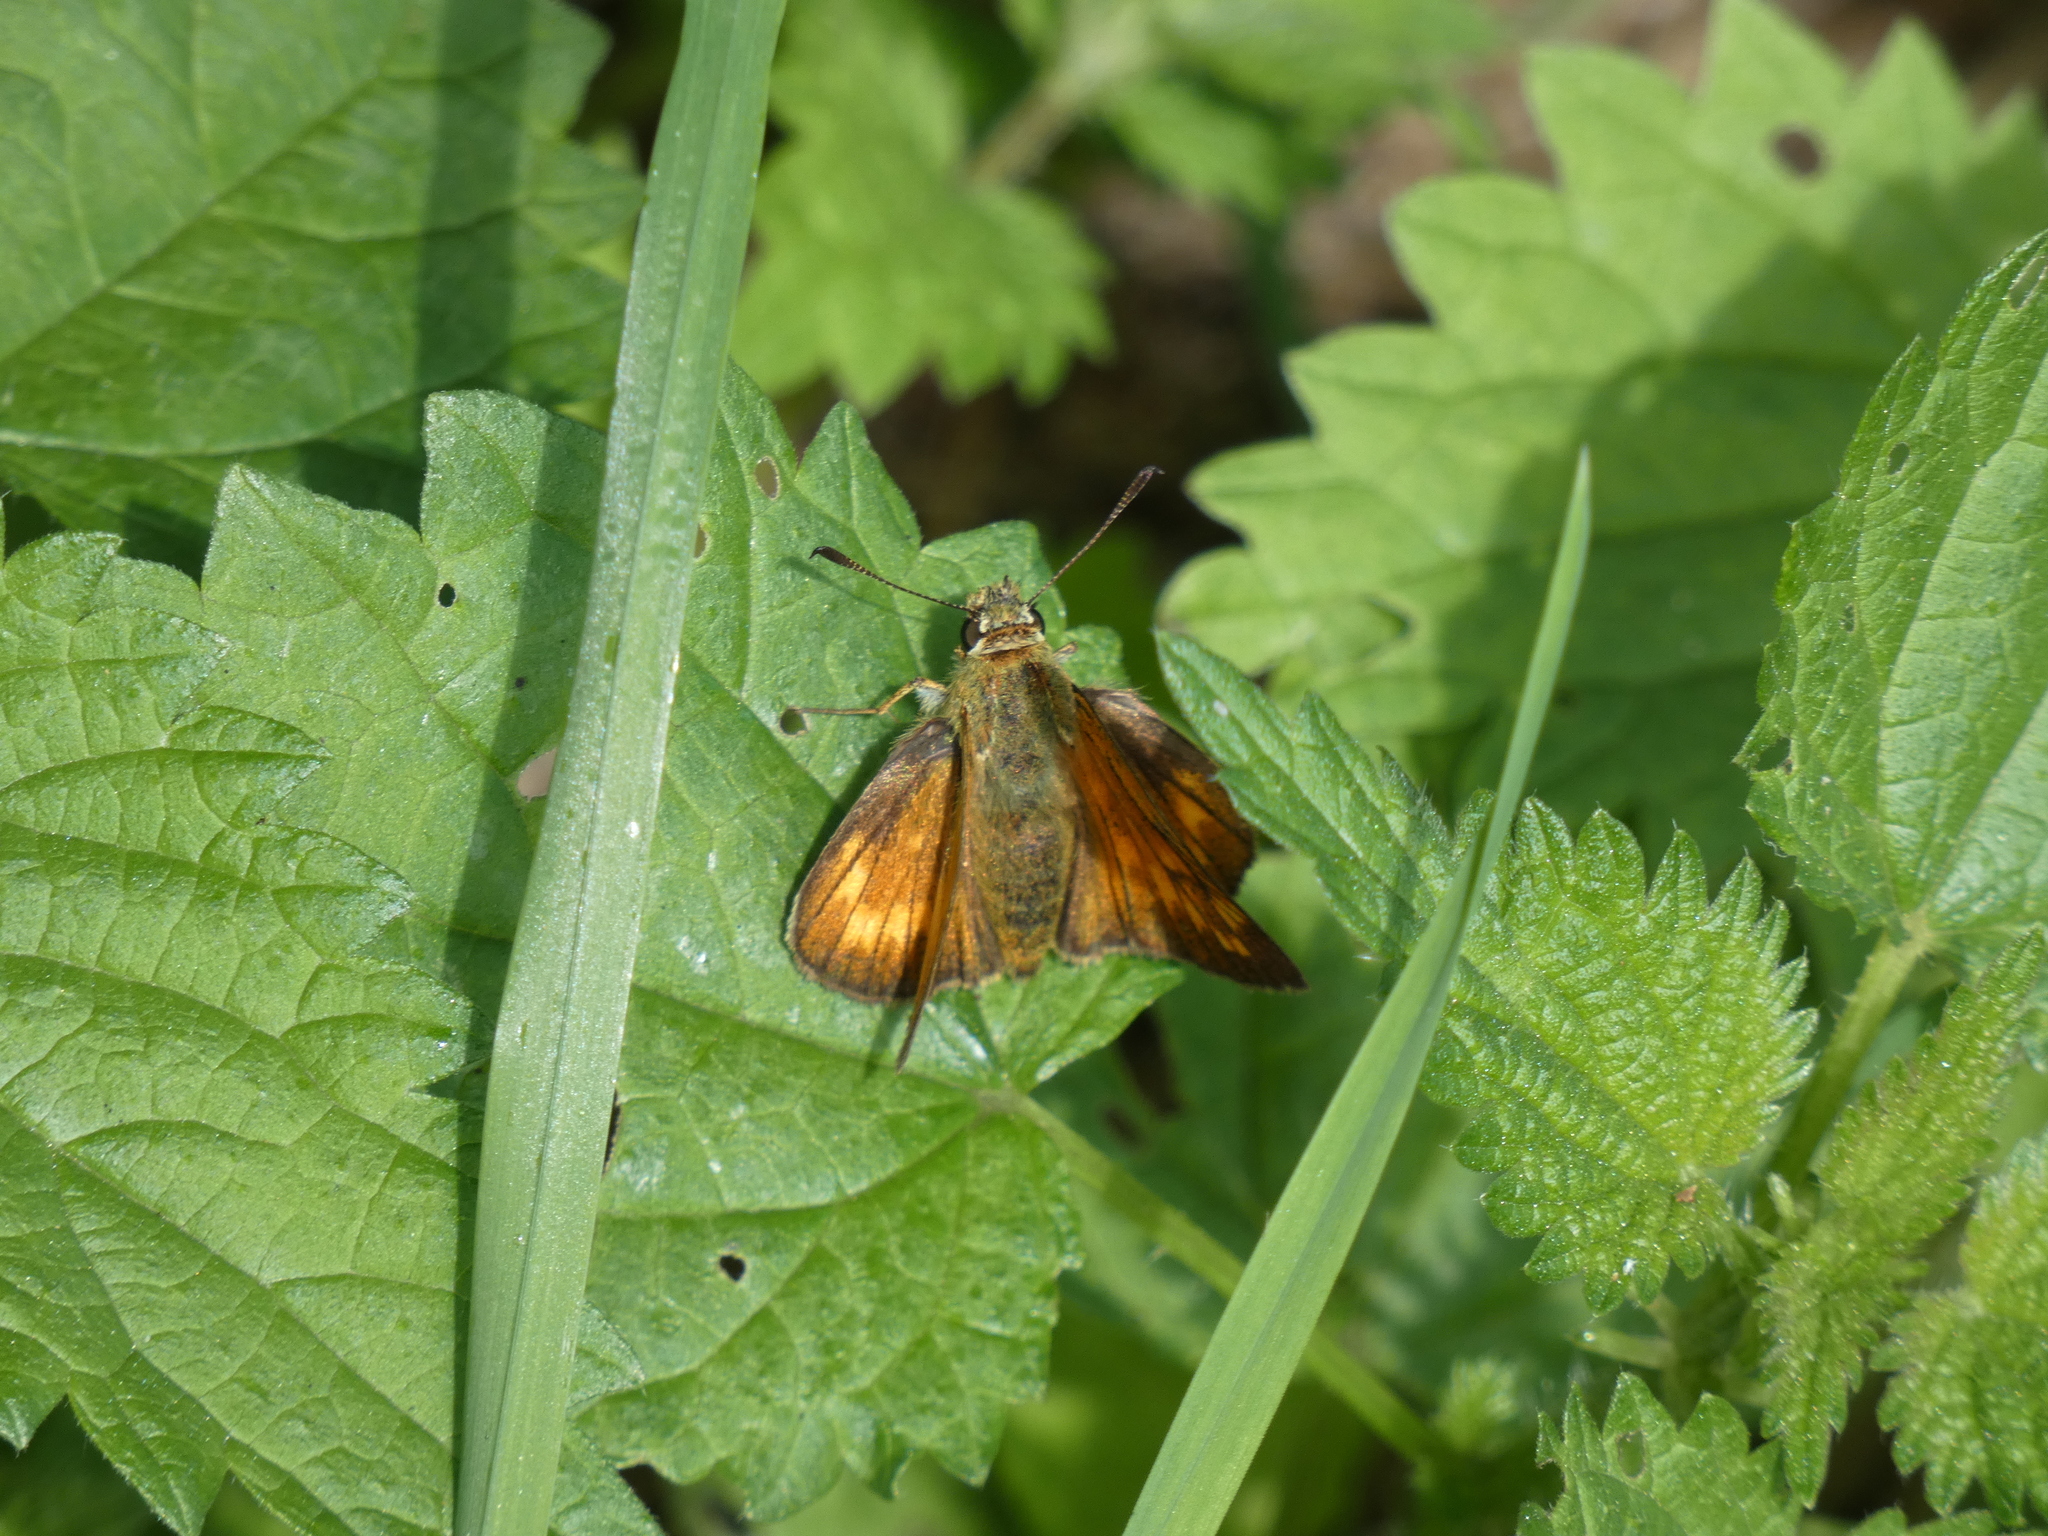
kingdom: Animalia
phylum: Arthropoda
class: Insecta
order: Lepidoptera
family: Hesperiidae
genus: Ochlodes
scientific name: Ochlodes venata
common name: Large skipper
